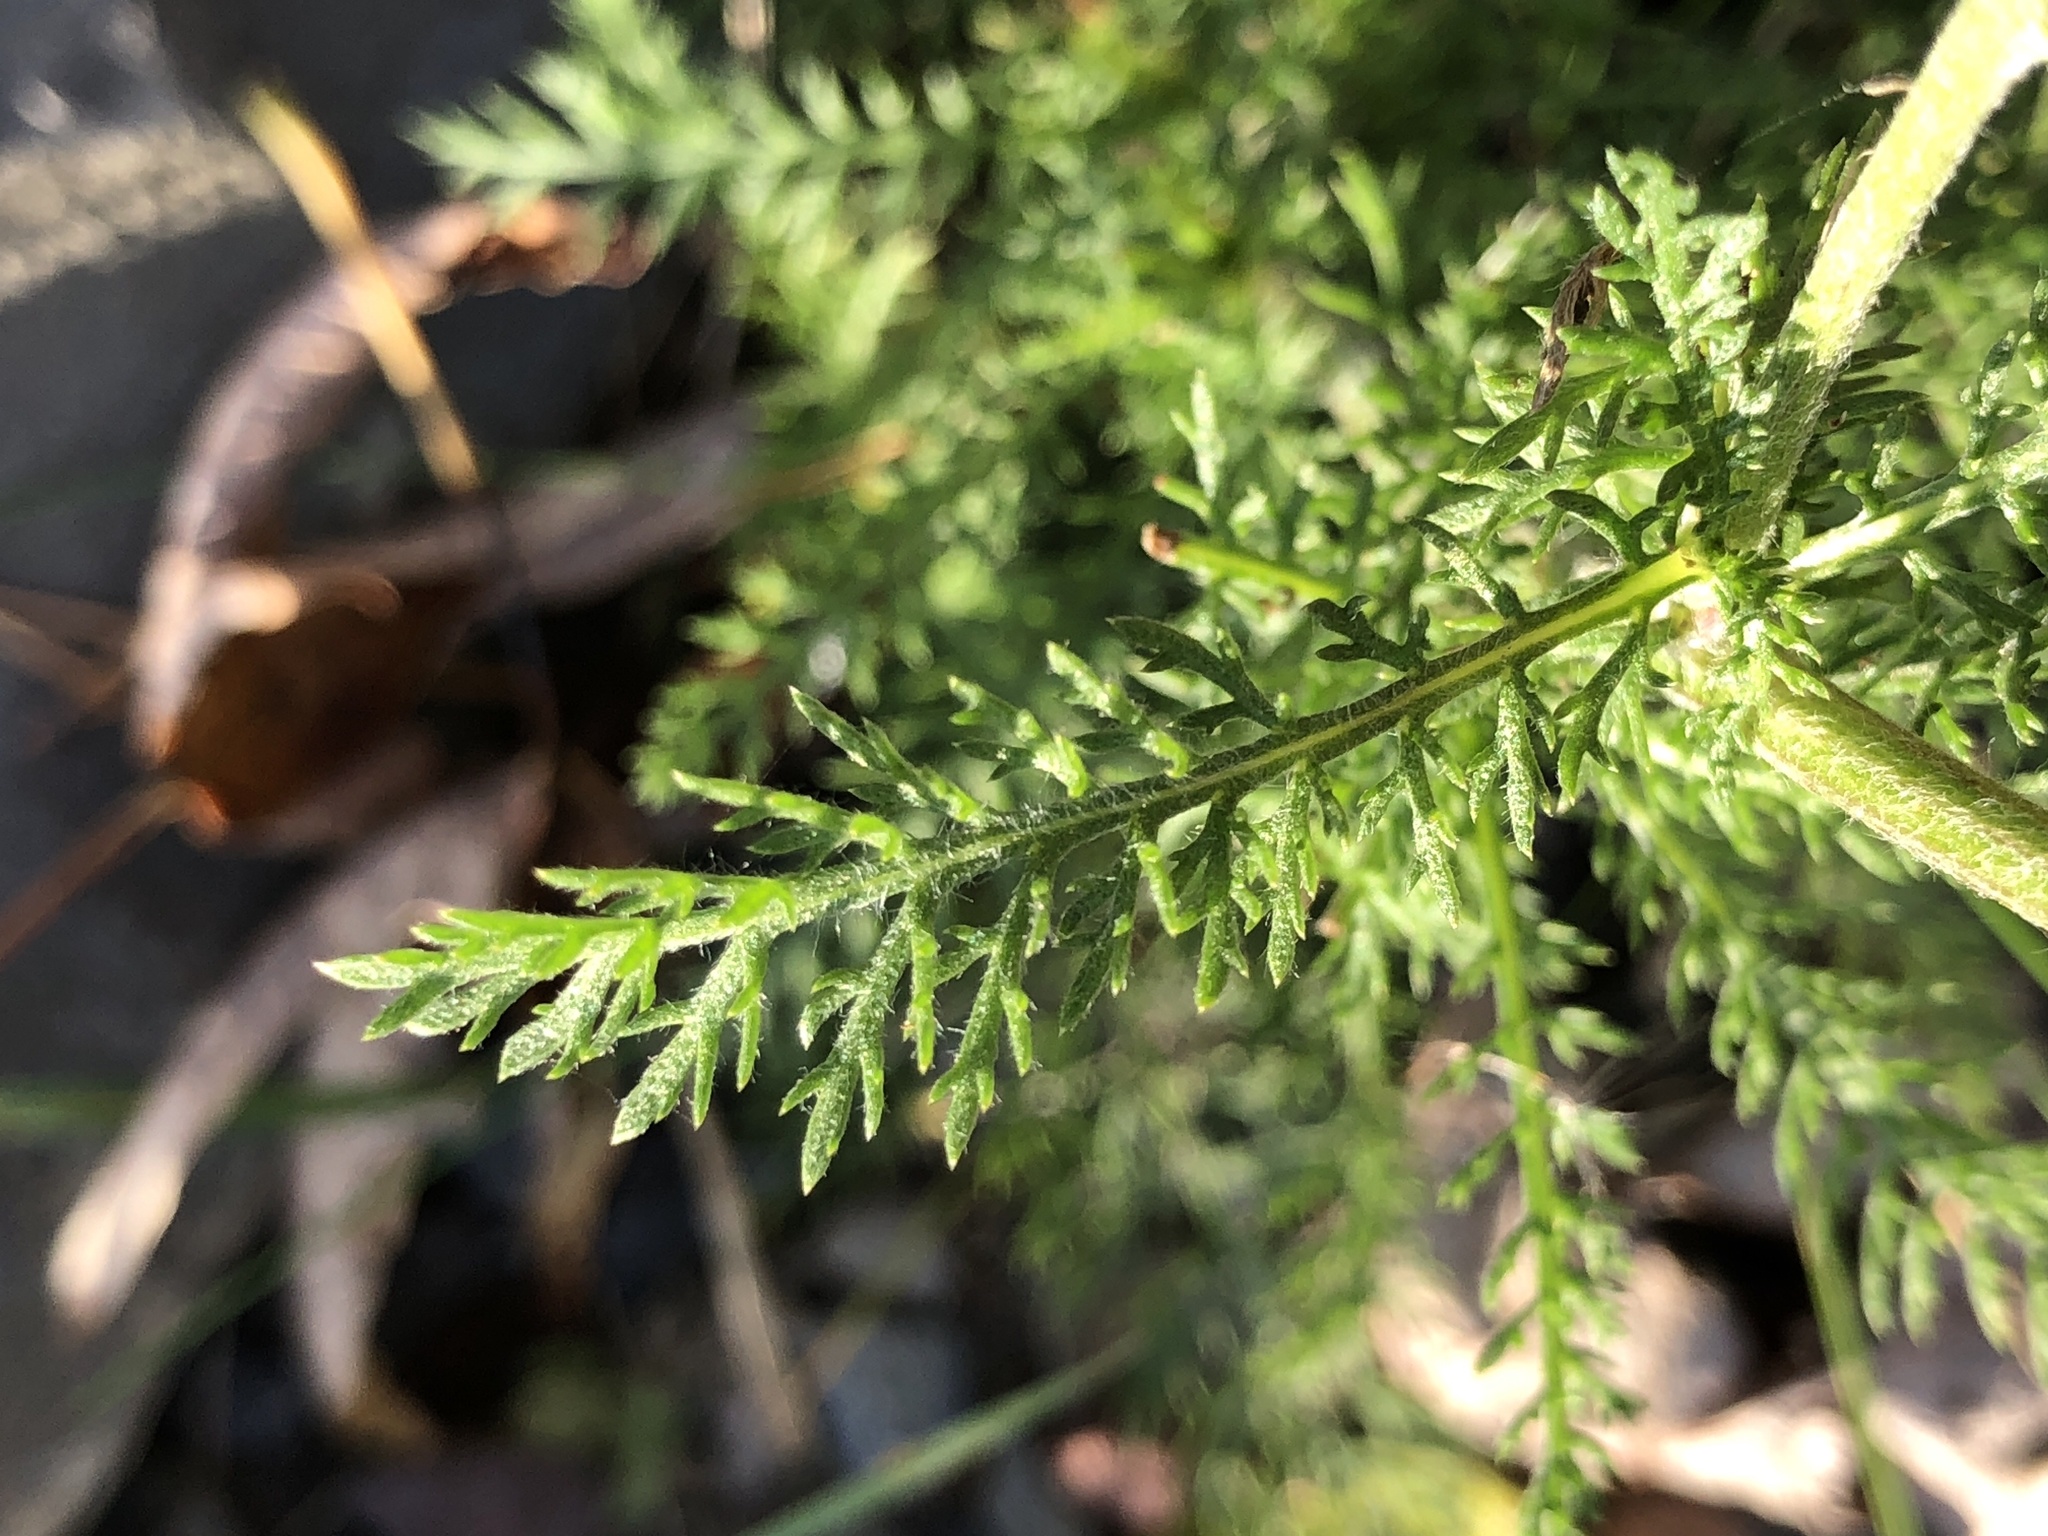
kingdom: Plantae
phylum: Tracheophyta
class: Magnoliopsida
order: Asterales
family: Asteraceae
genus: Achillea
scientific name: Achillea millefolium
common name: Yarrow
